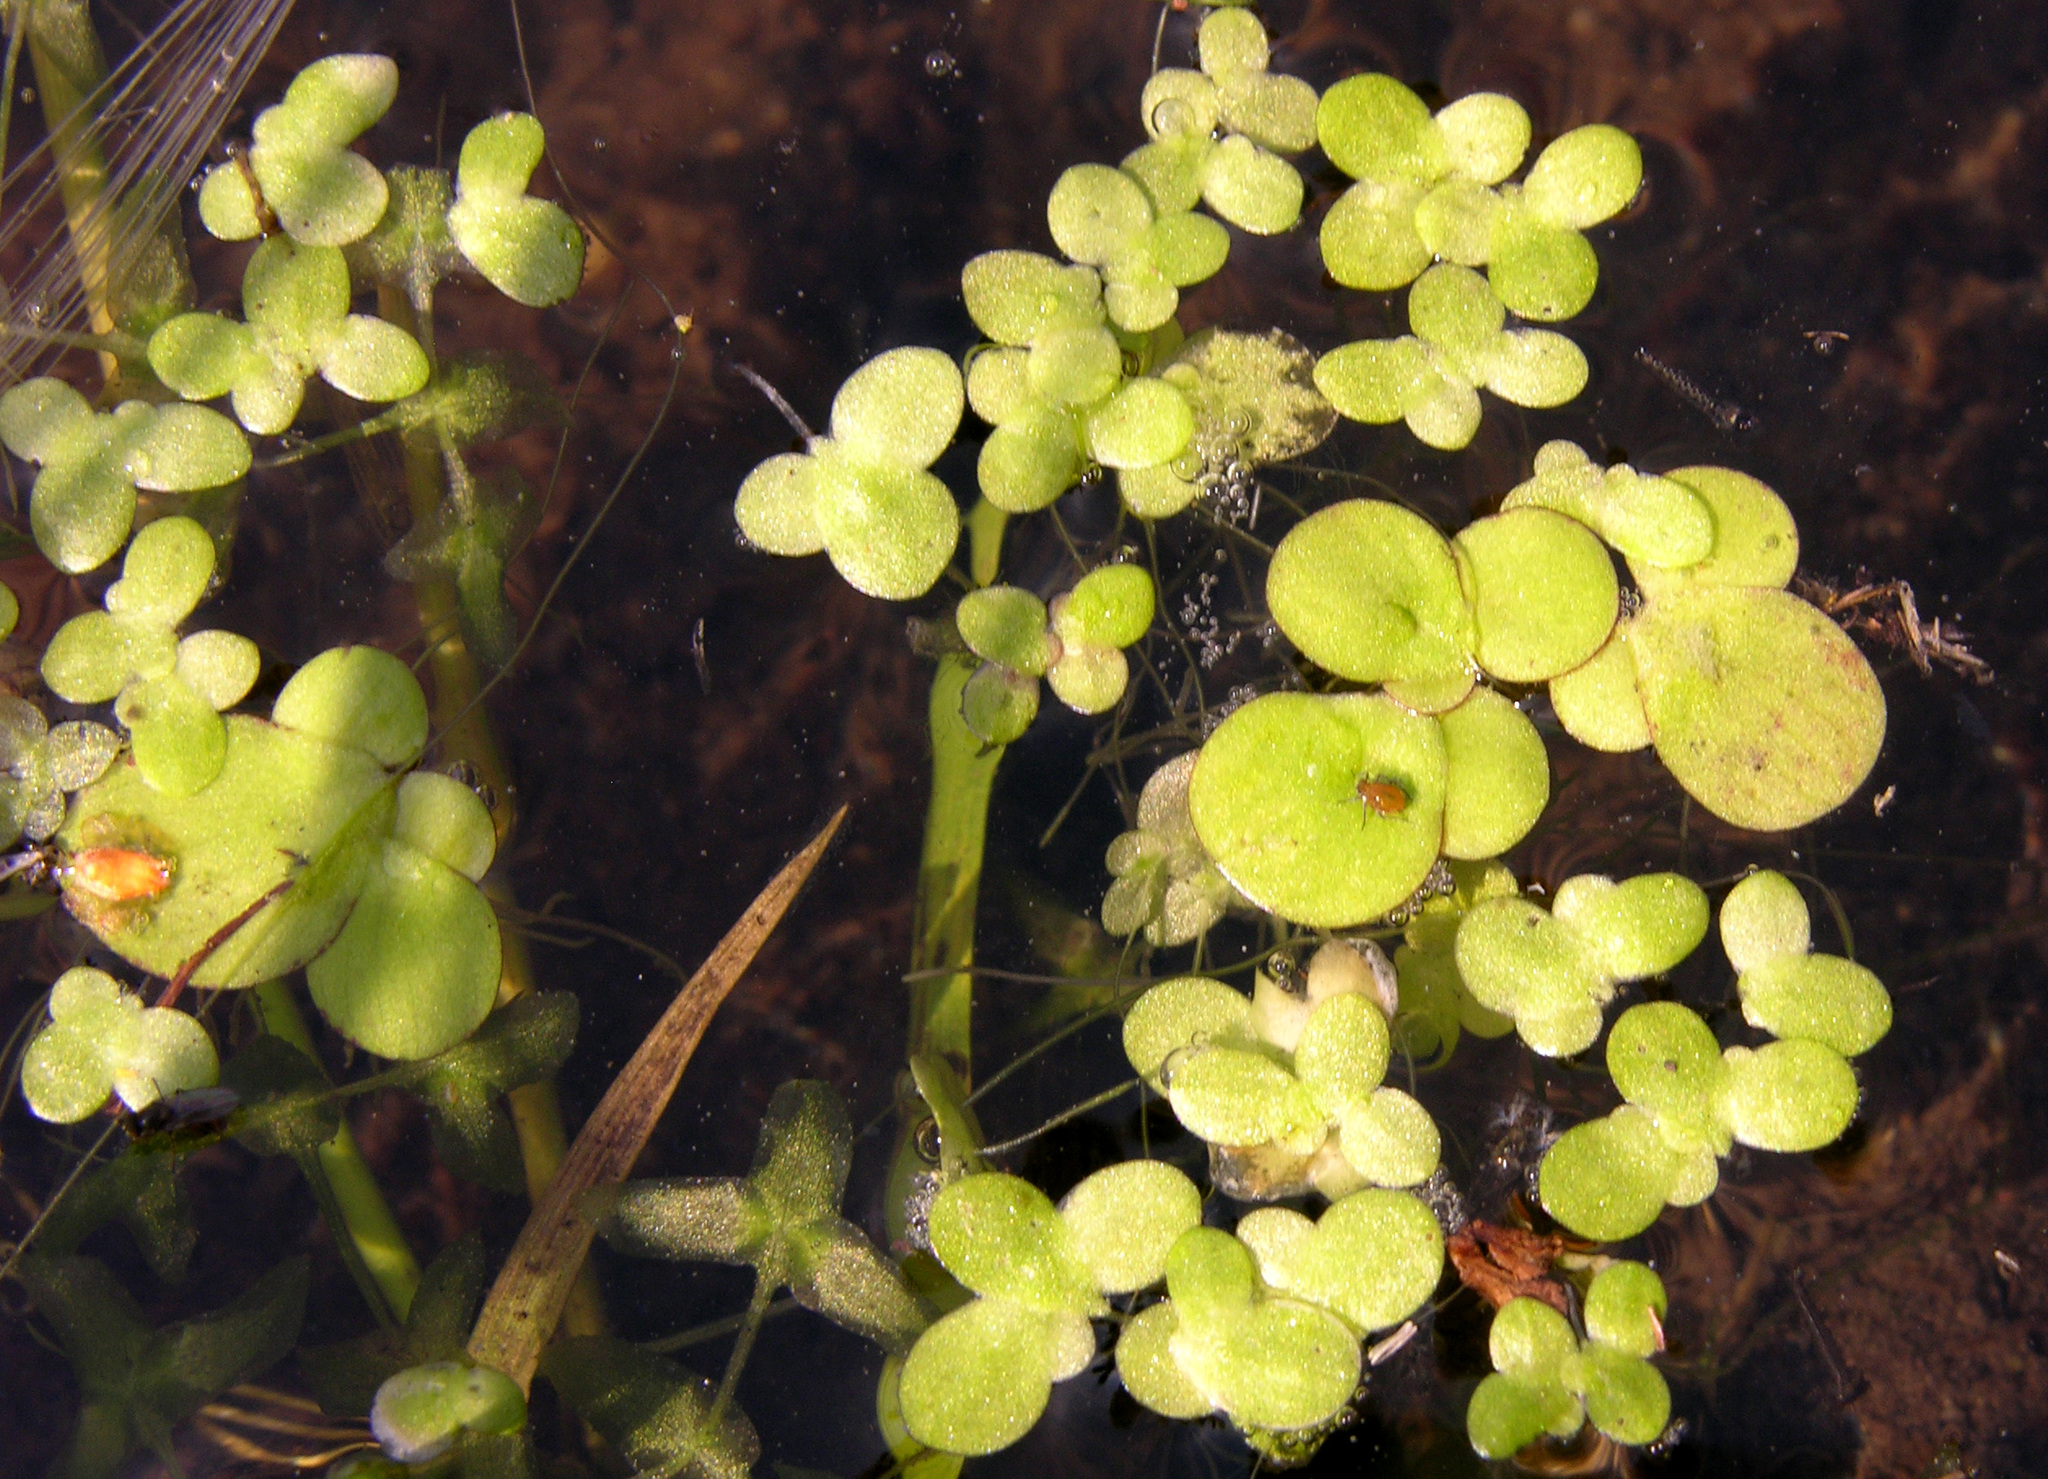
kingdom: Plantae
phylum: Tracheophyta
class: Liliopsida
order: Alismatales
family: Araceae
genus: Lemna
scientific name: Lemna minor
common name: Common duckweed
